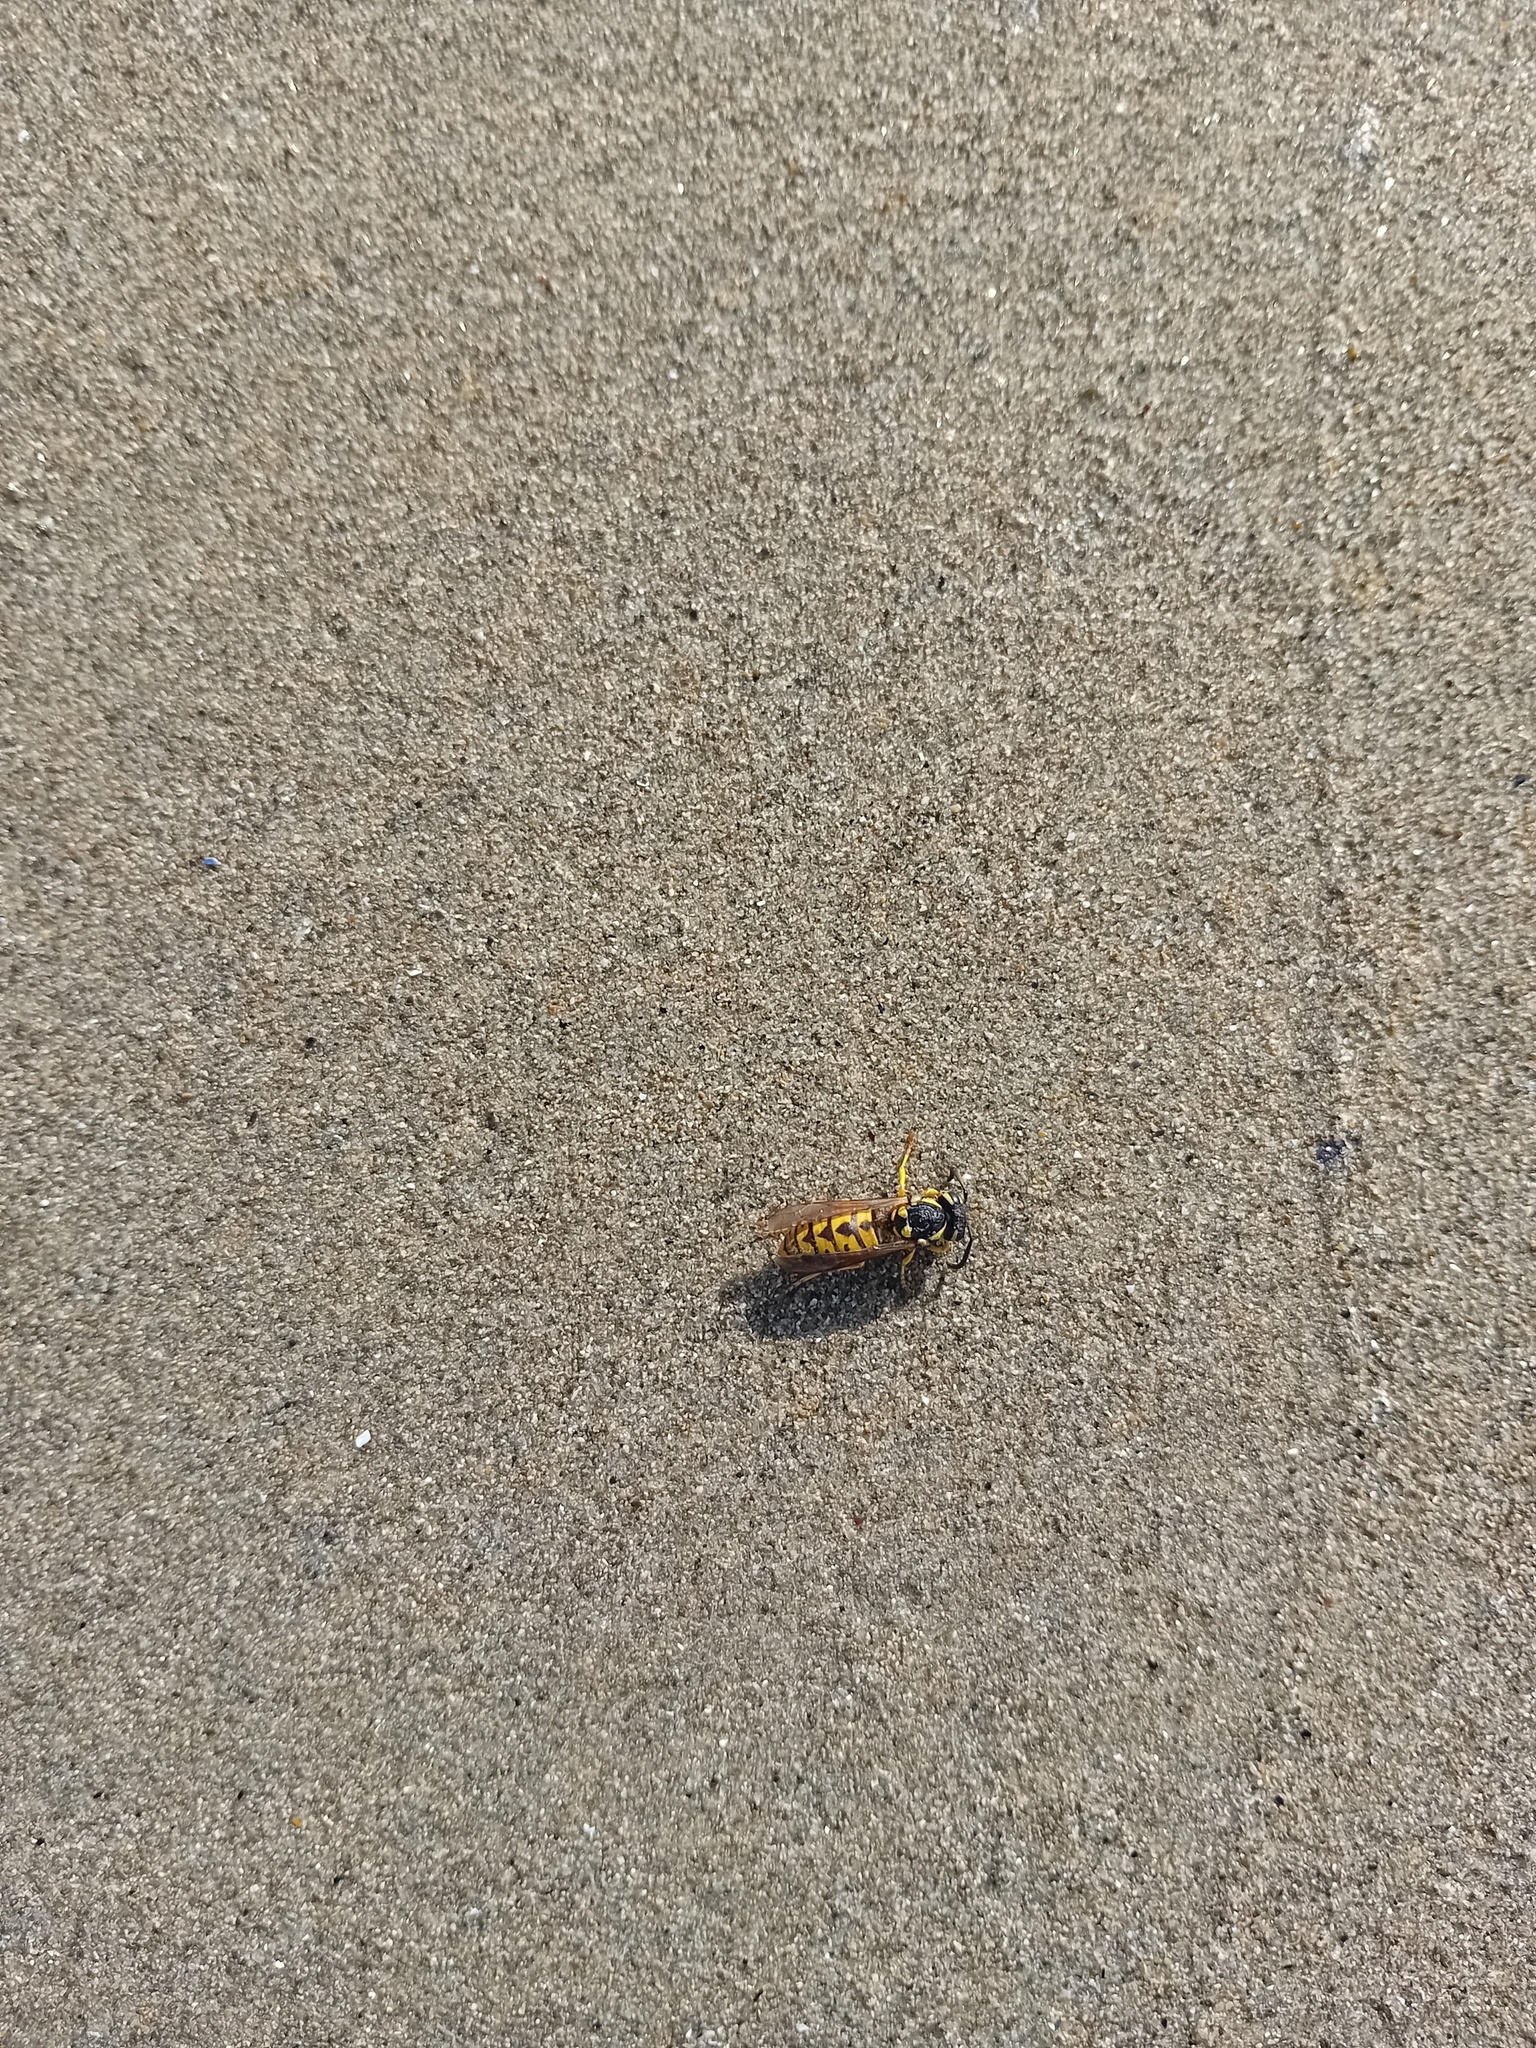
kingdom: Animalia
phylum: Arthropoda
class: Insecta
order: Hymenoptera
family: Vespidae
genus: Vespula
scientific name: Vespula germanica
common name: German wasp
